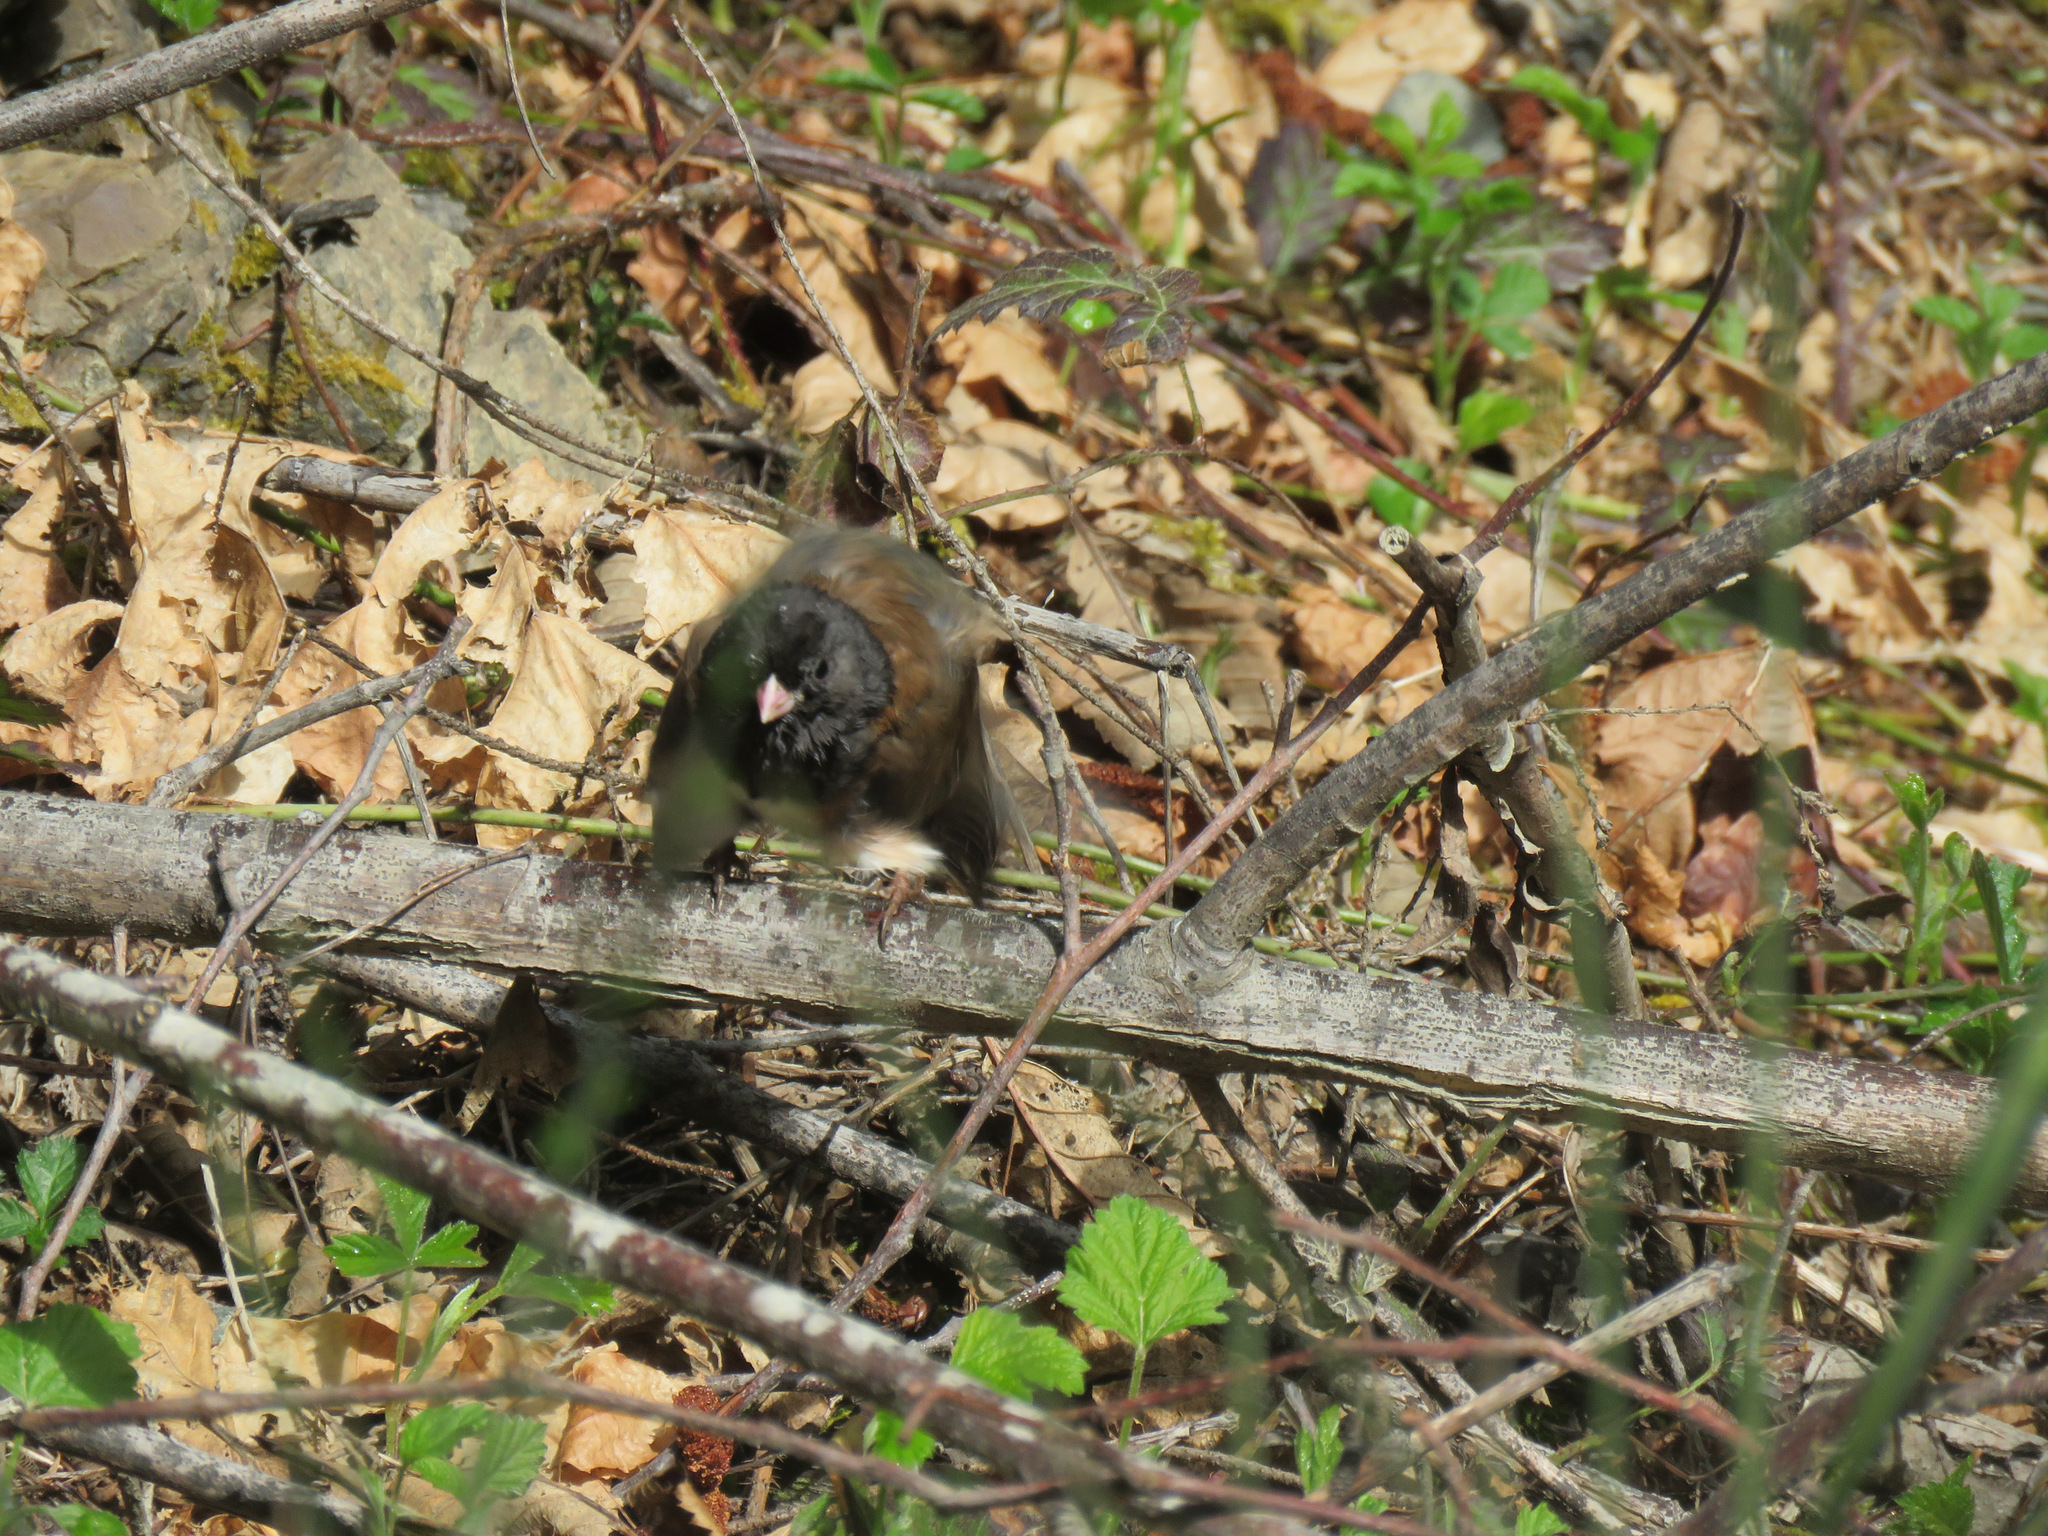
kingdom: Animalia
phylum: Chordata
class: Aves
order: Passeriformes
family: Passerellidae
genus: Junco
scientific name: Junco hyemalis
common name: Dark-eyed junco
